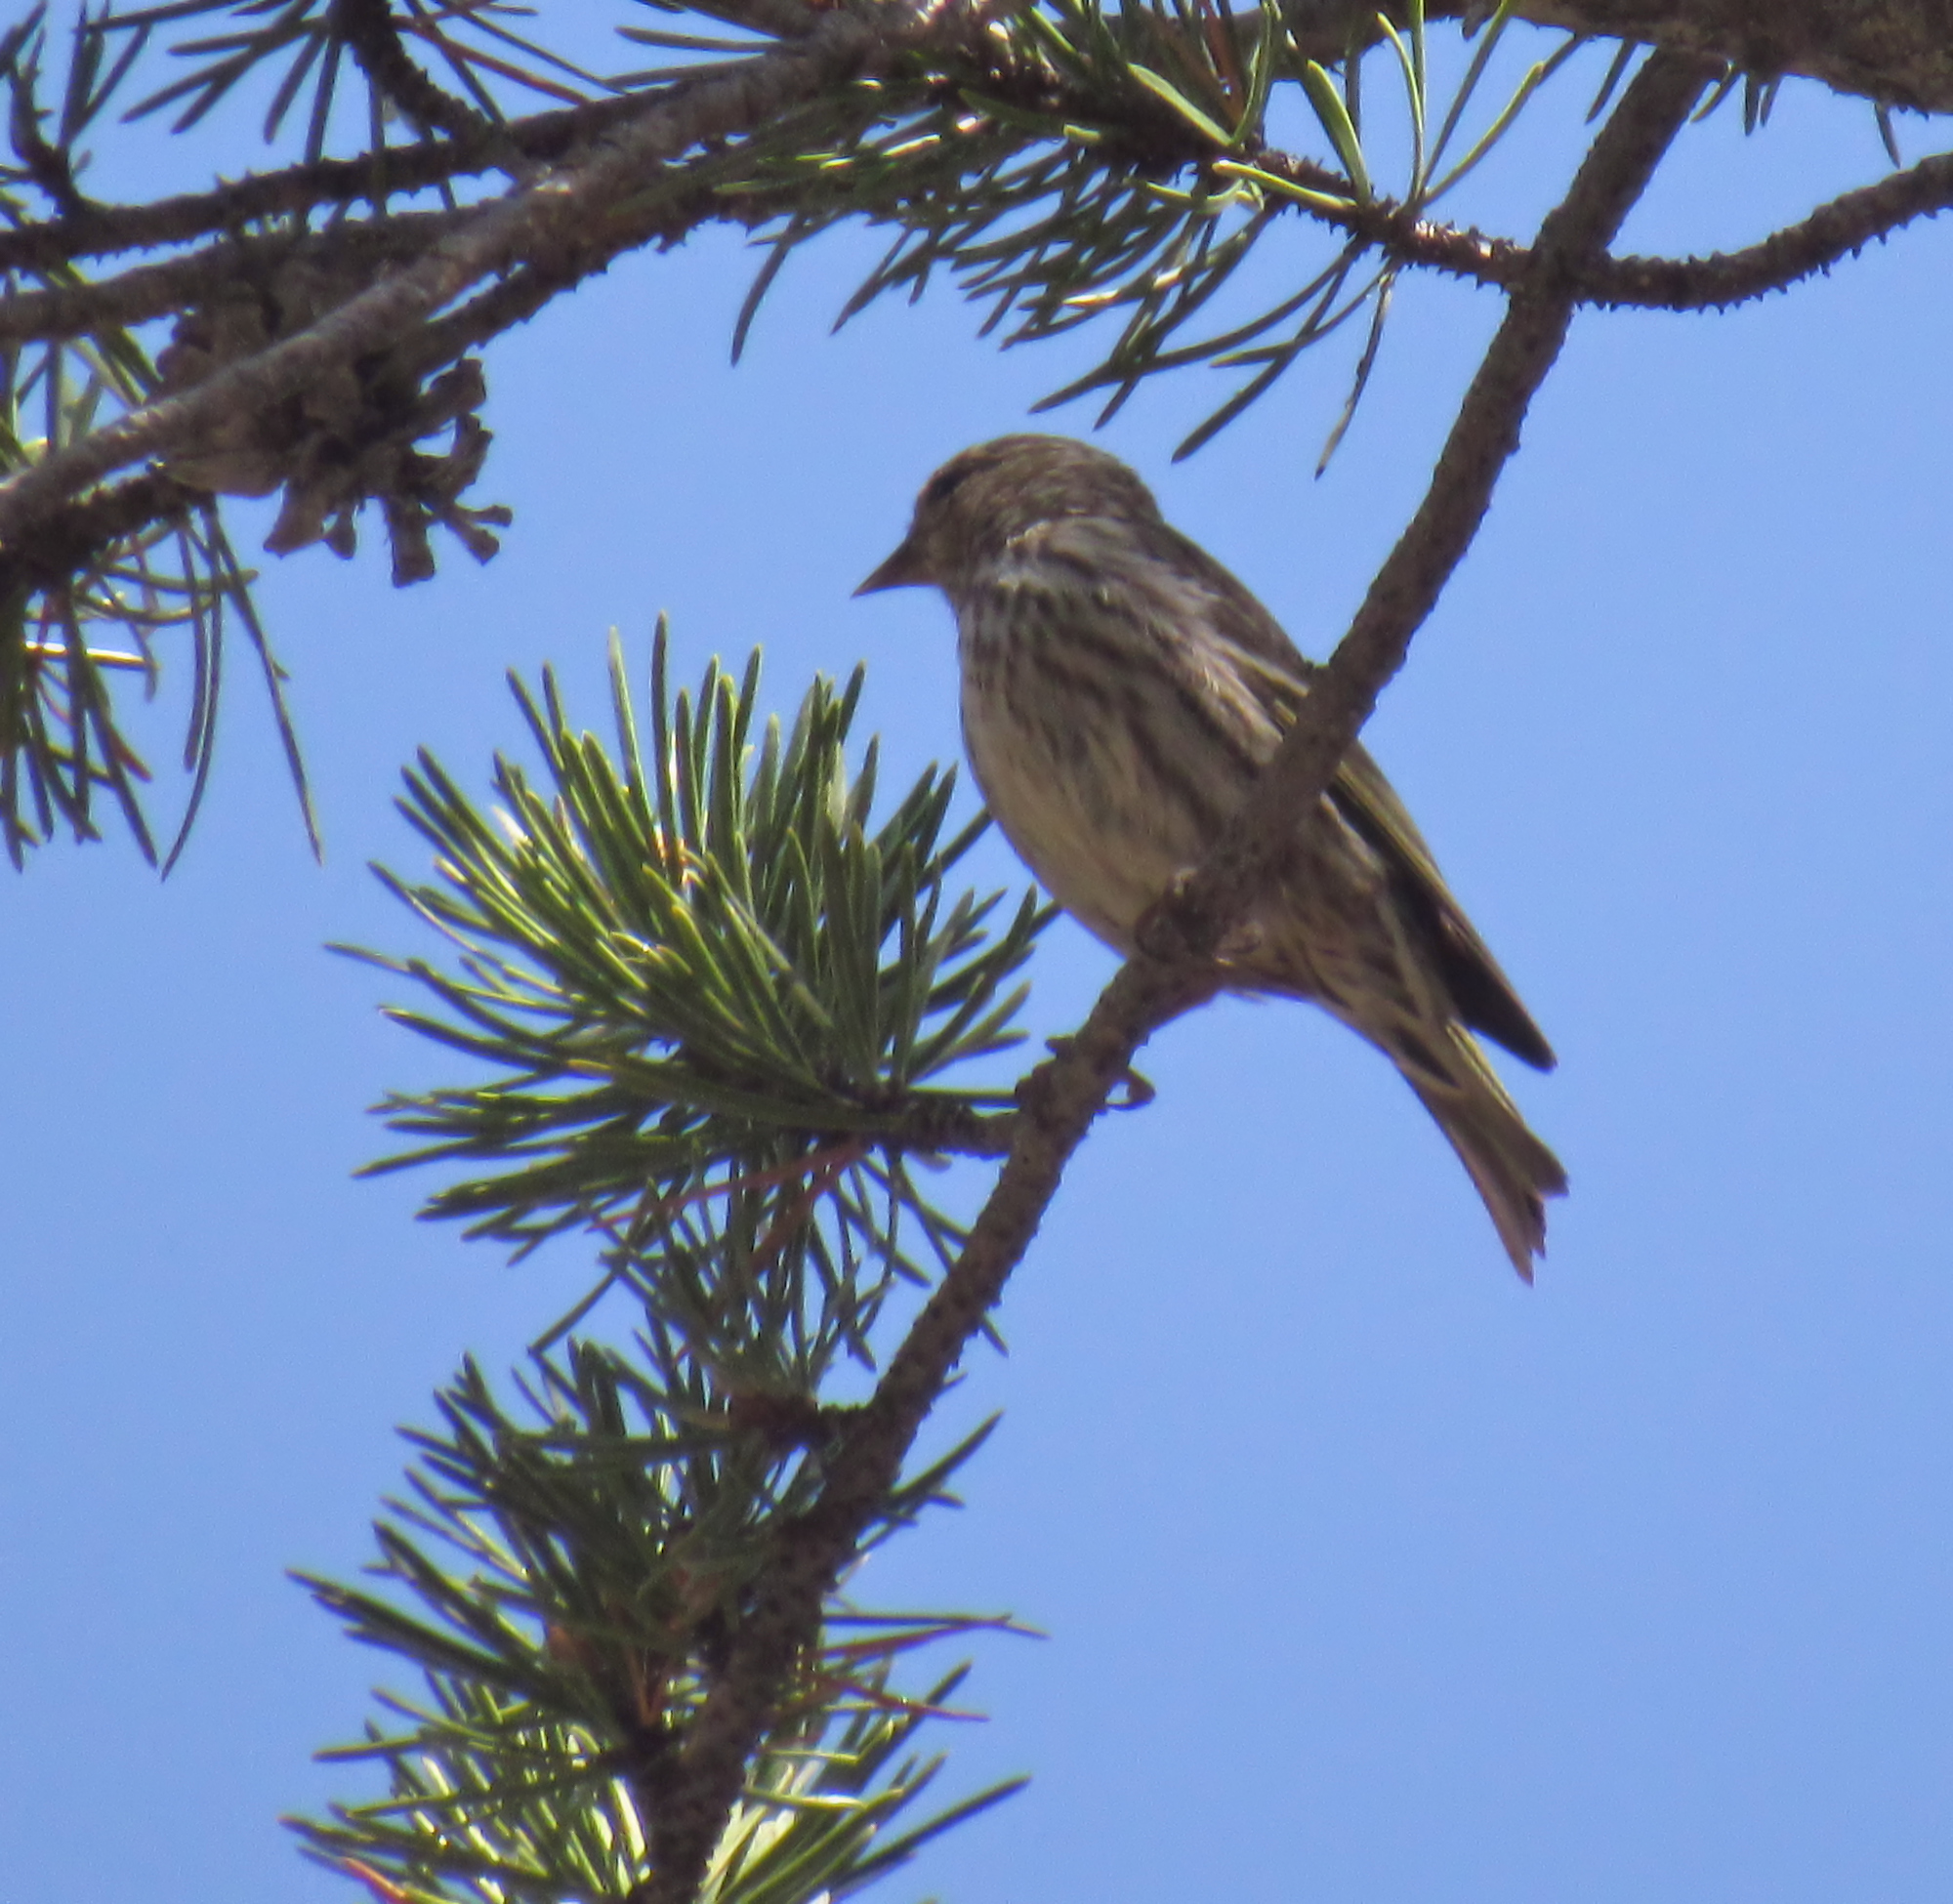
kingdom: Animalia
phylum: Chordata
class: Aves
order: Passeriformes
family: Fringillidae
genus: Spinus
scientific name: Spinus pinus
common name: Pine siskin
